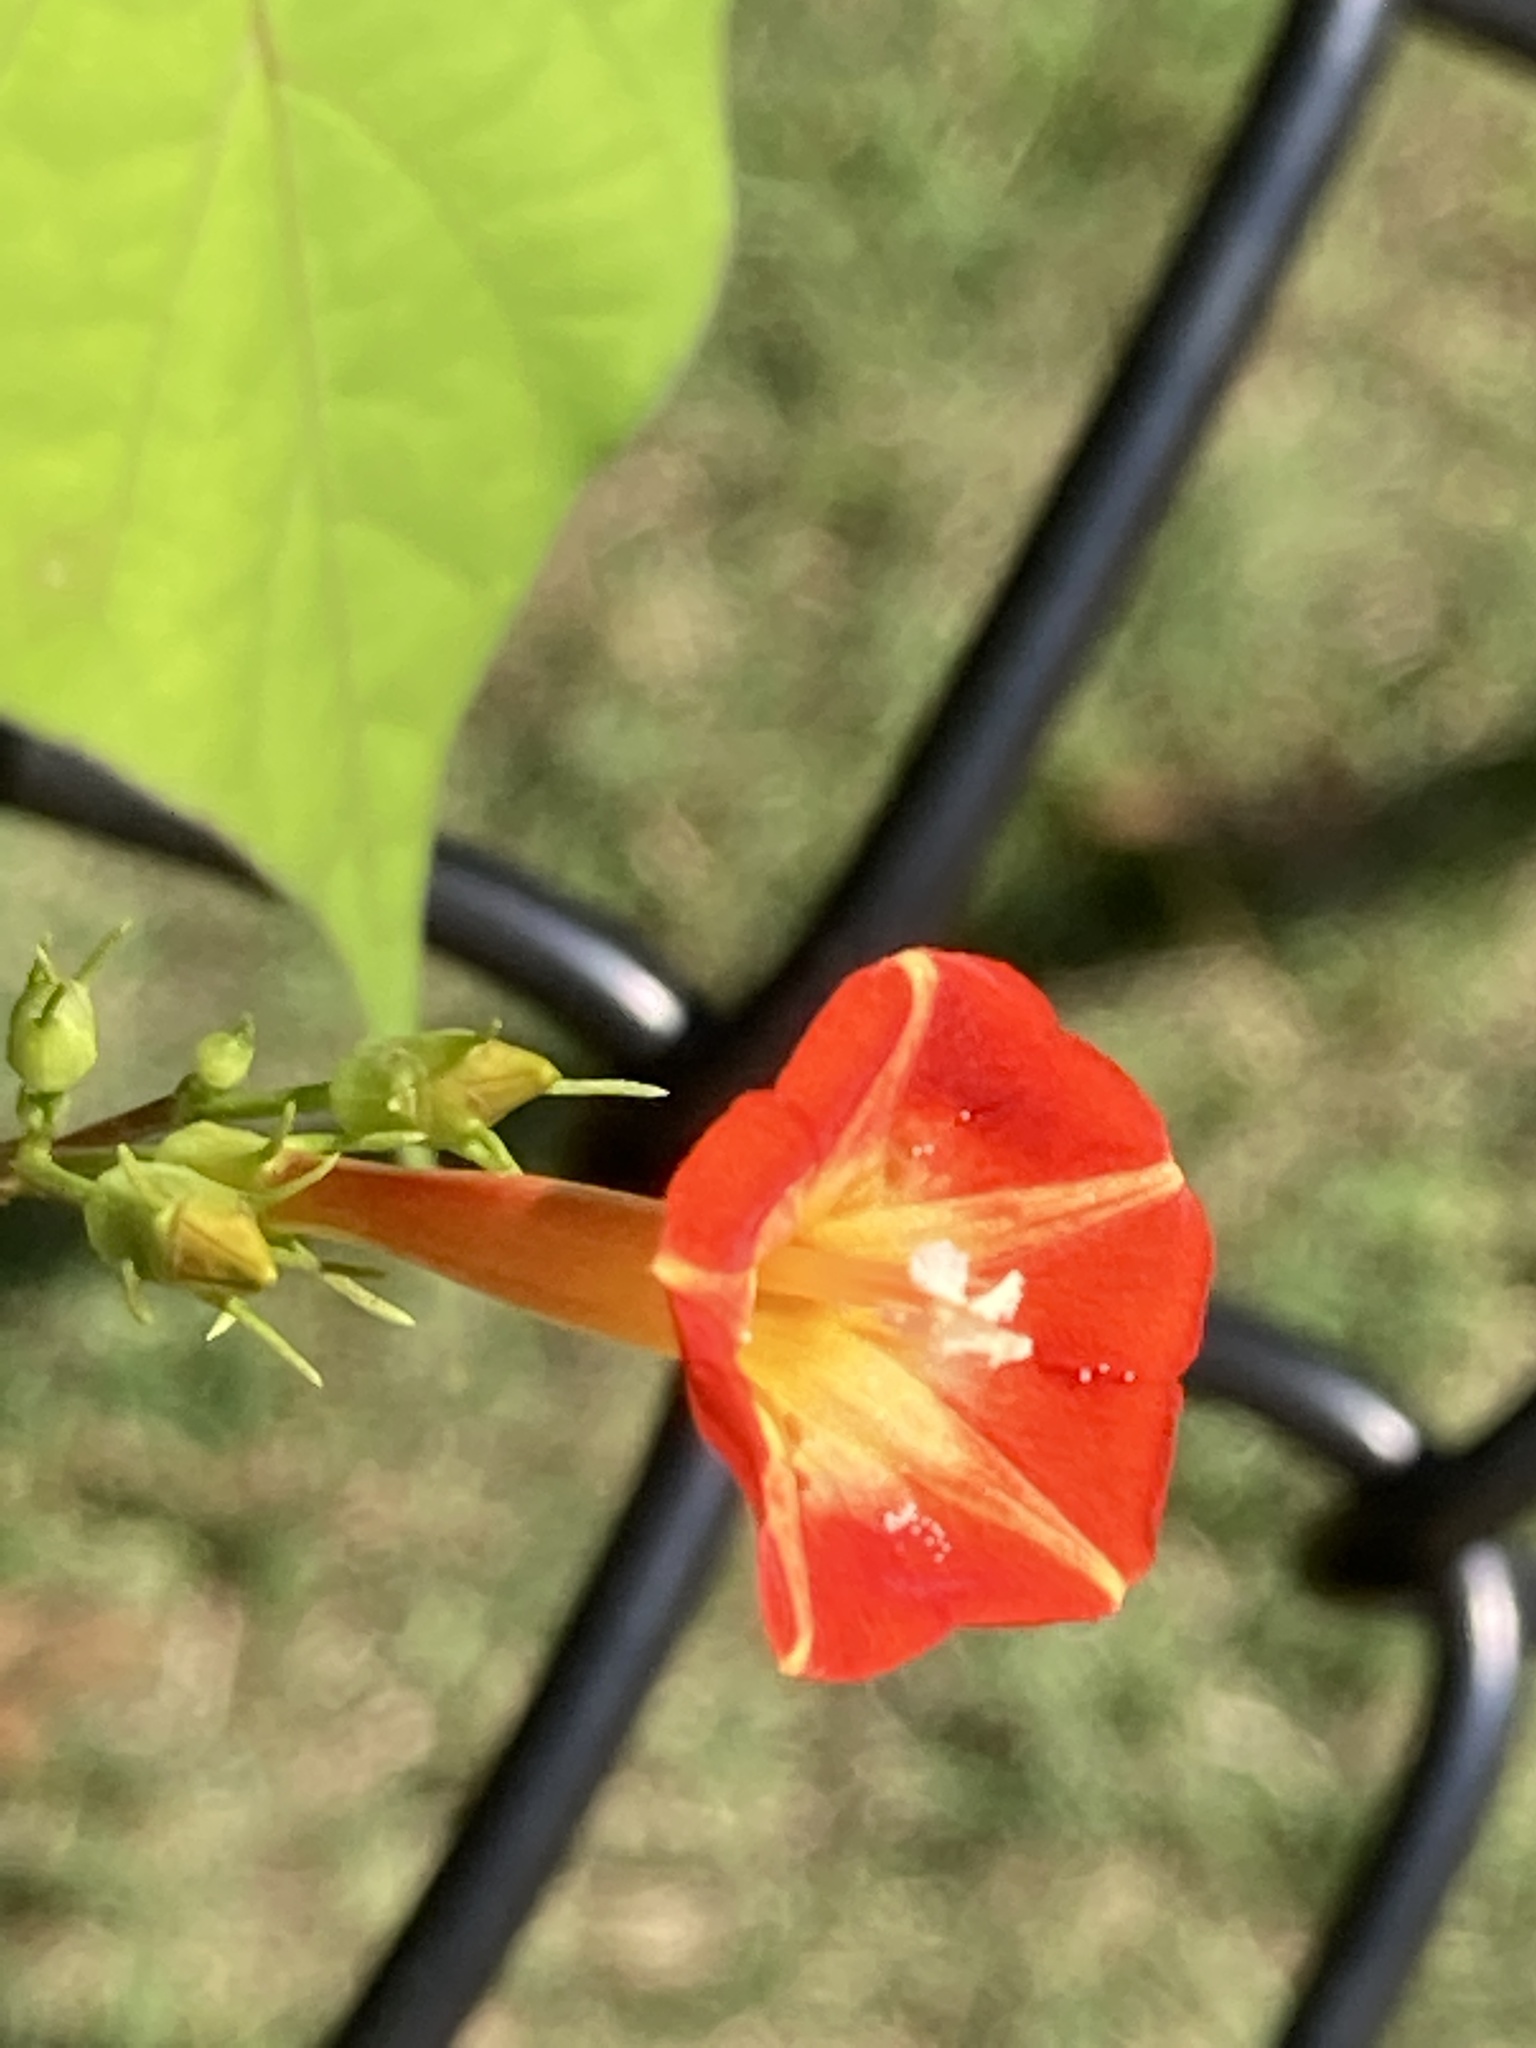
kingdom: Plantae
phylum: Tracheophyta
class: Magnoliopsida
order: Solanales
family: Convolvulaceae
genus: Ipomoea
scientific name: Ipomoea coccinea
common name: Red morning-glory
